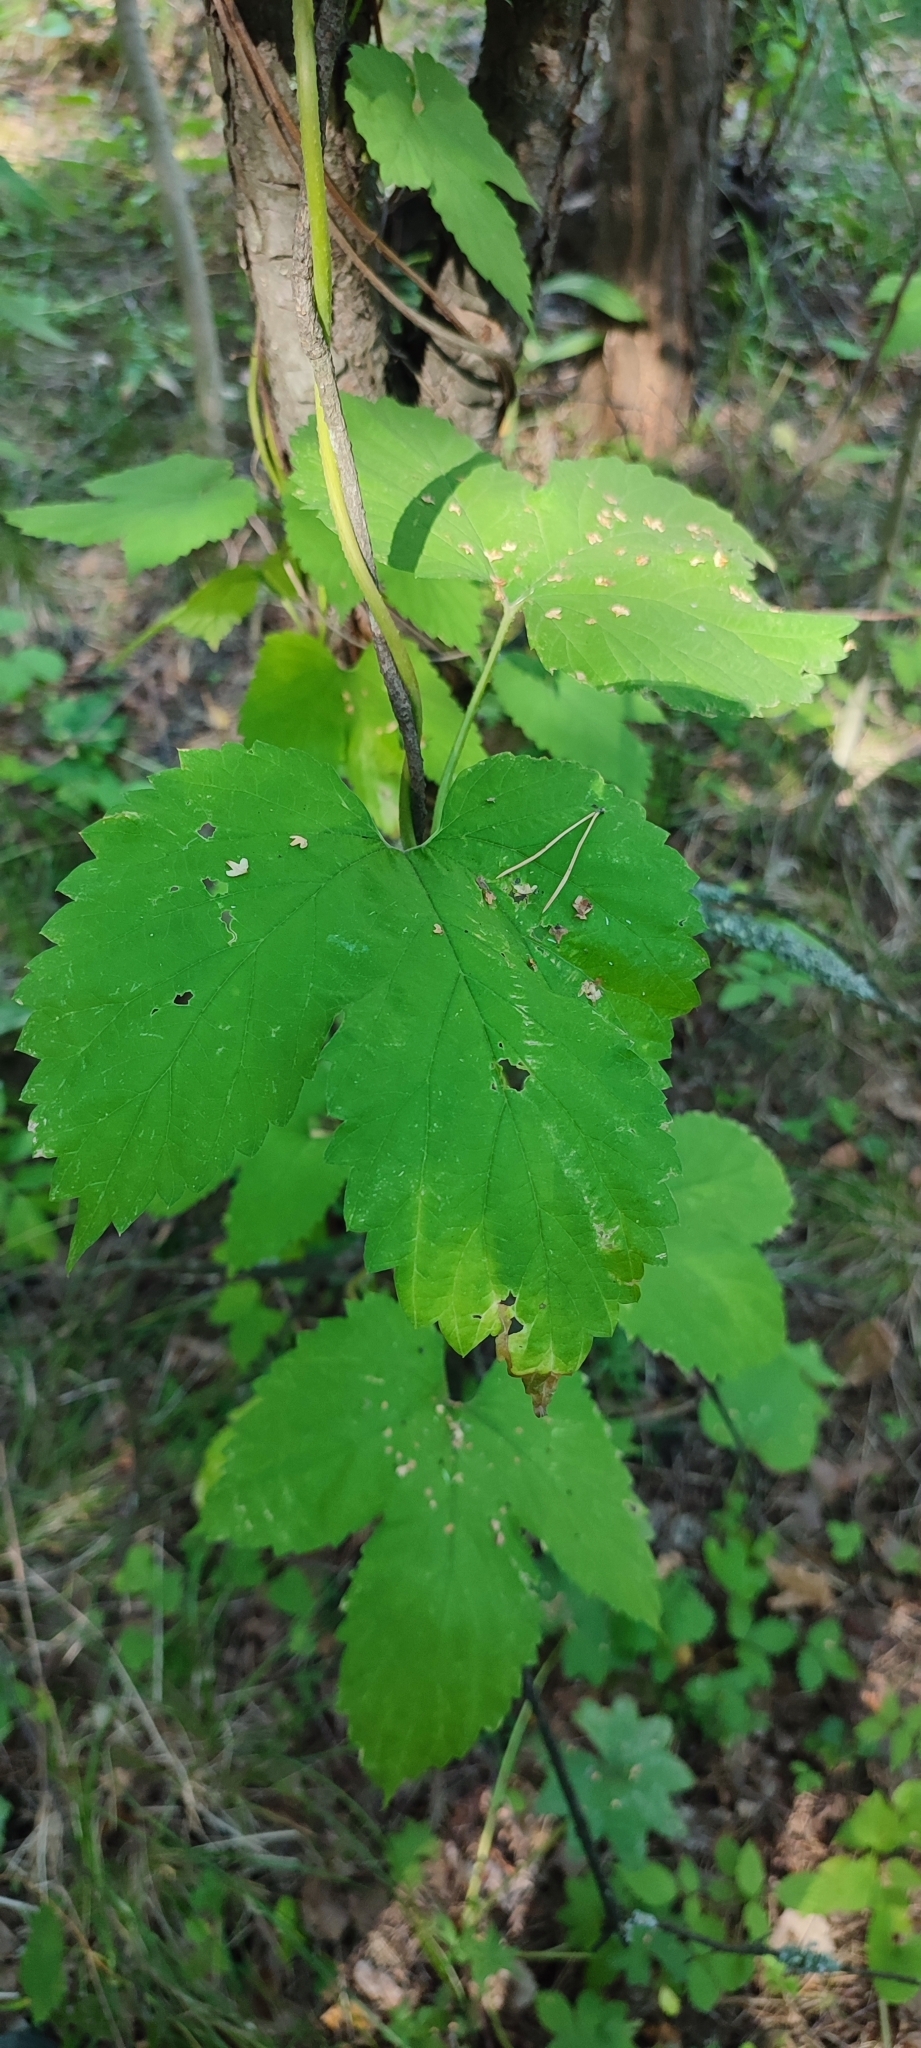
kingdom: Plantae
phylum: Tracheophyta
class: Magnoliopsida
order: Rosales
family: Cannabaceae
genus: Humulus
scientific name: Humulus lupulus
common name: Hop
